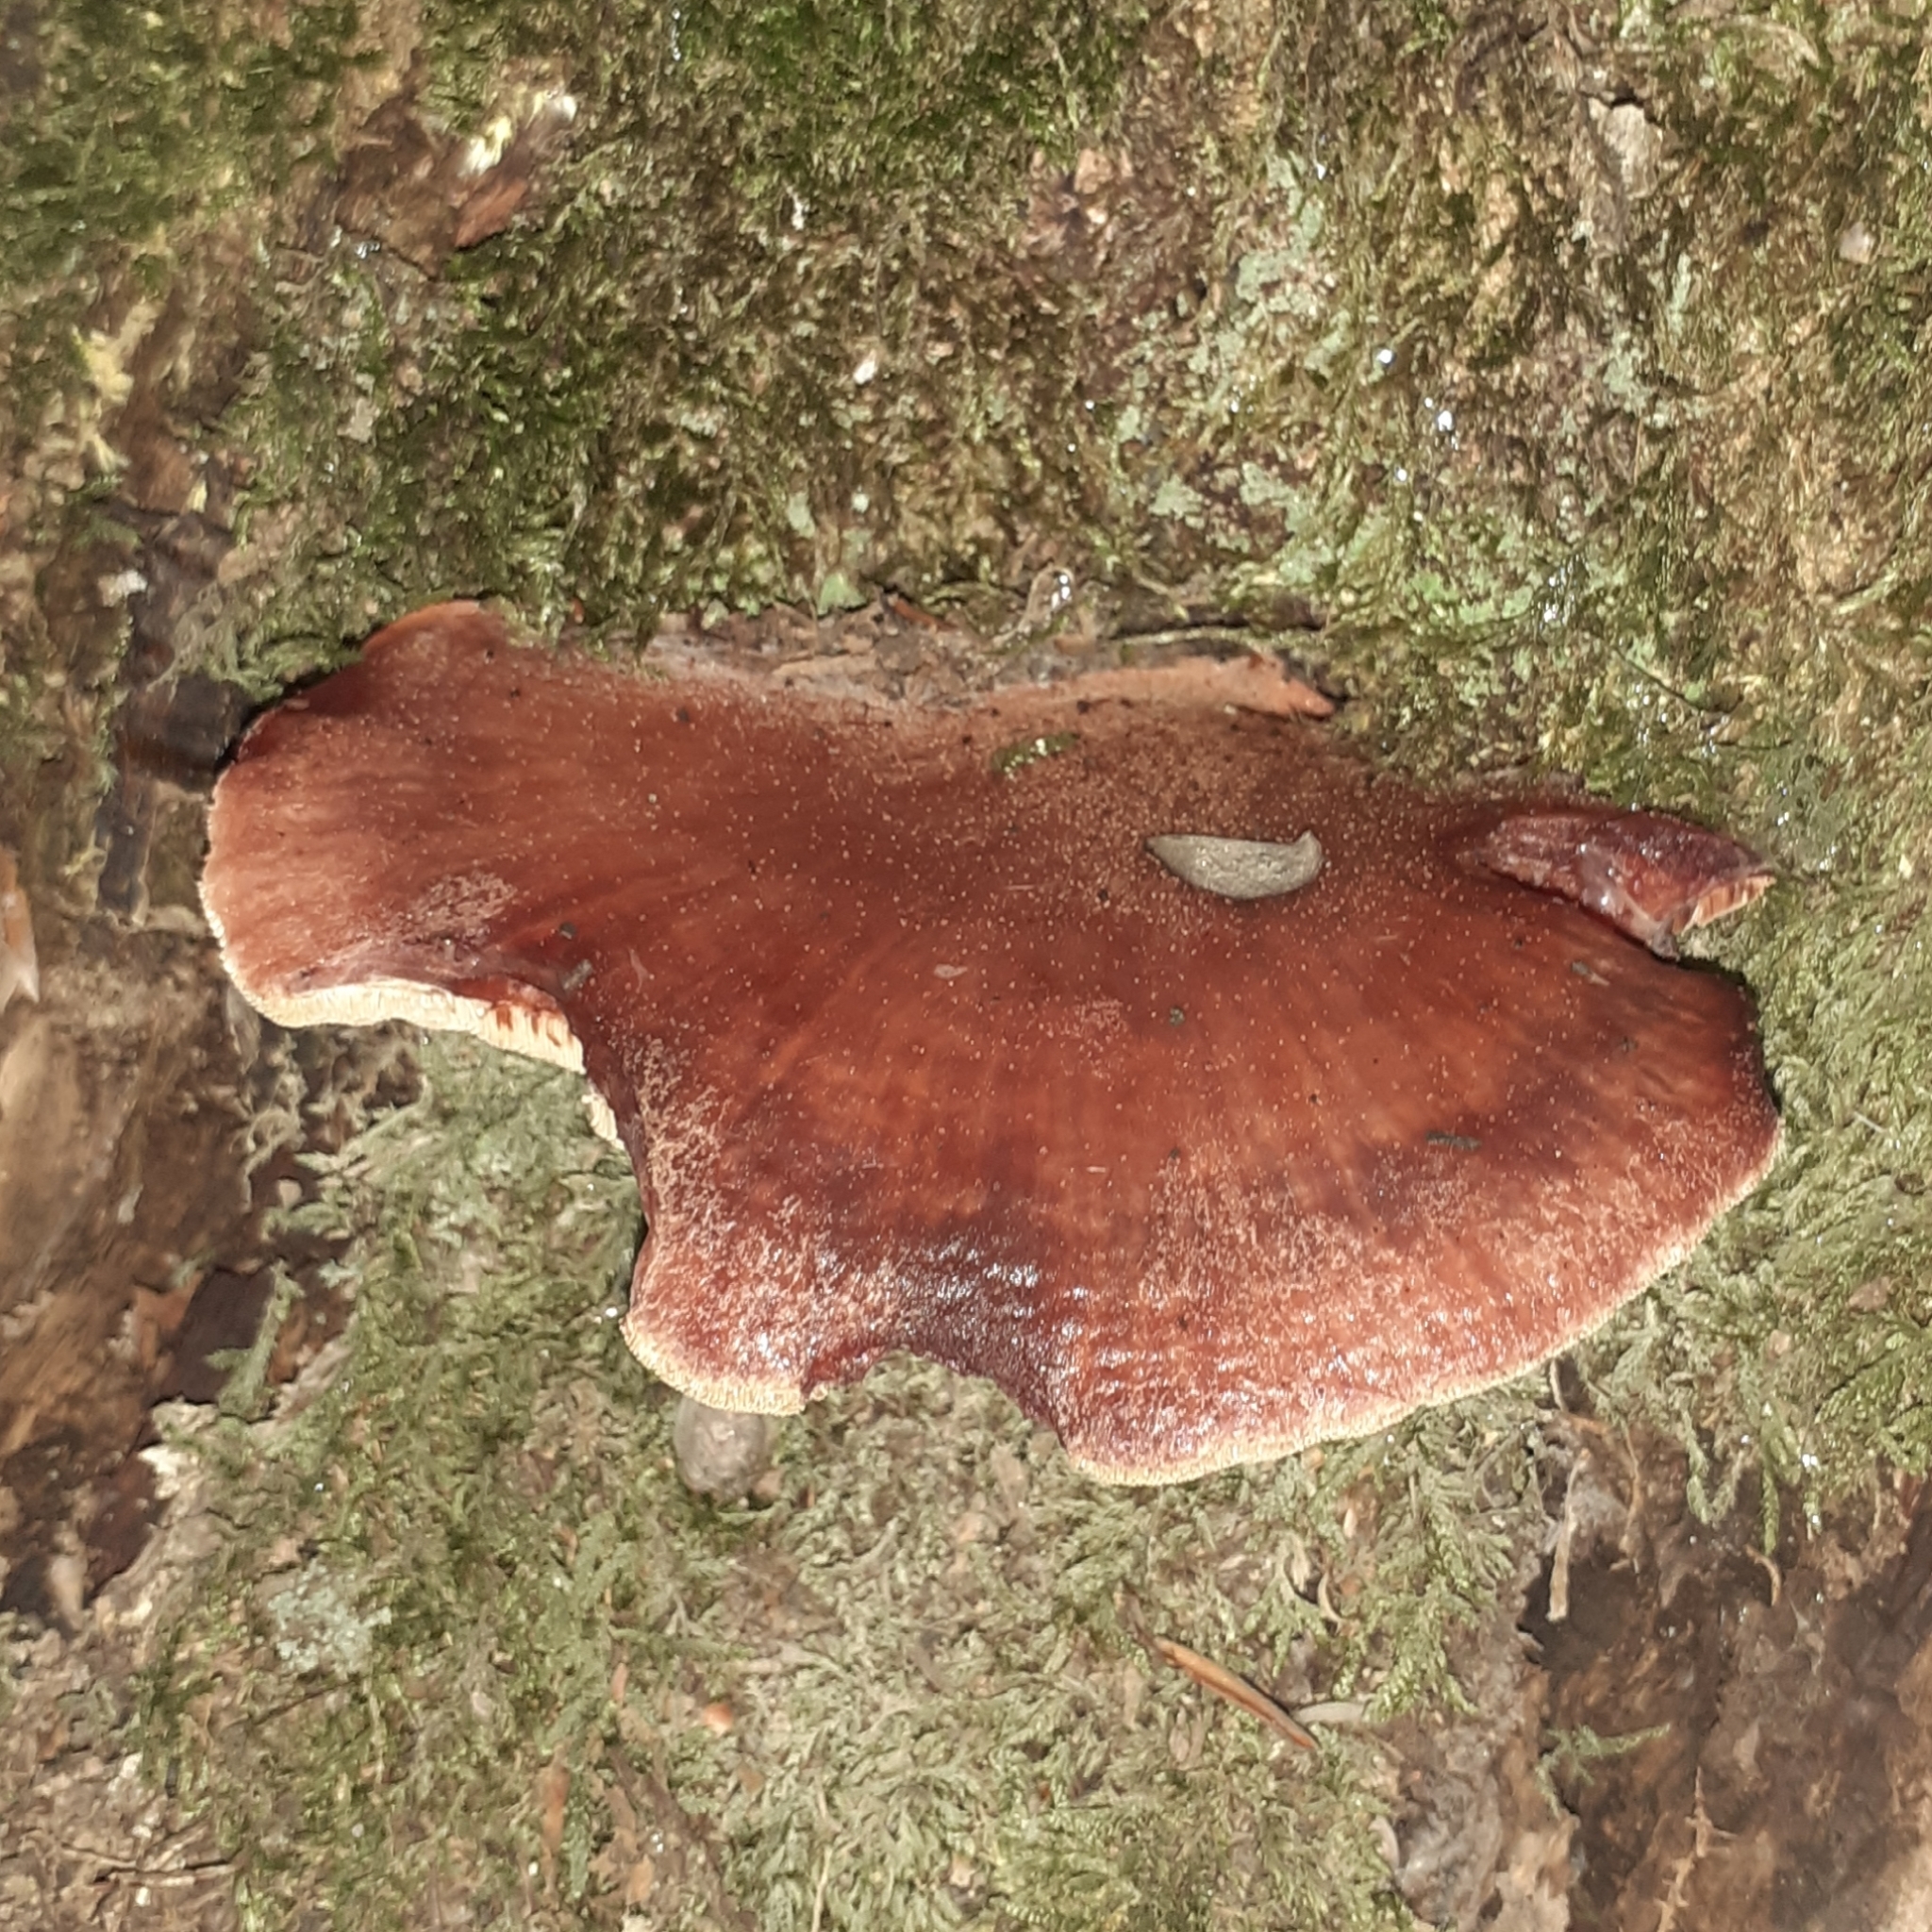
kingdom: Fungi
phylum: Basidiomycota
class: Agaricomycetes
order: Agaricales
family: Fistulinaceae
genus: Fistulina
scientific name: Fistulina hepatica
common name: Beef-steak fungus
